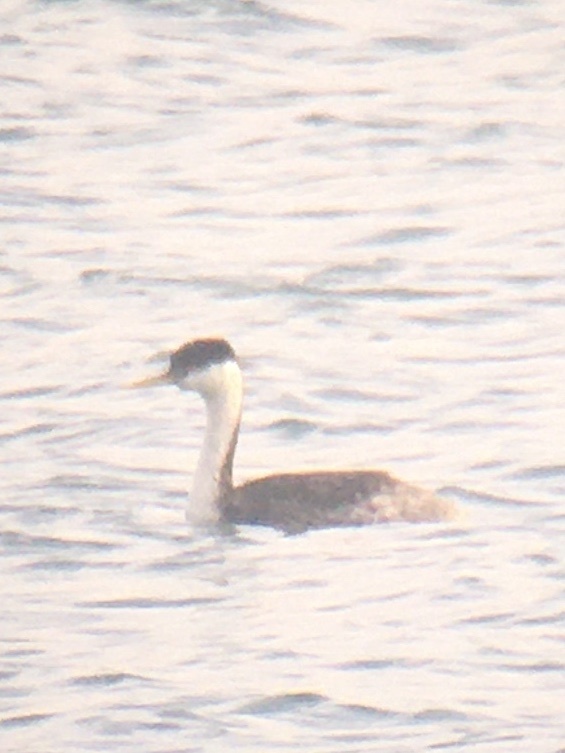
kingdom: Animalia
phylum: Chordata
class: Aves
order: Podicipediformes
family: Podicipedidae
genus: Aechmophorus
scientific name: Aechmophorus occidentalis
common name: Western grebe
